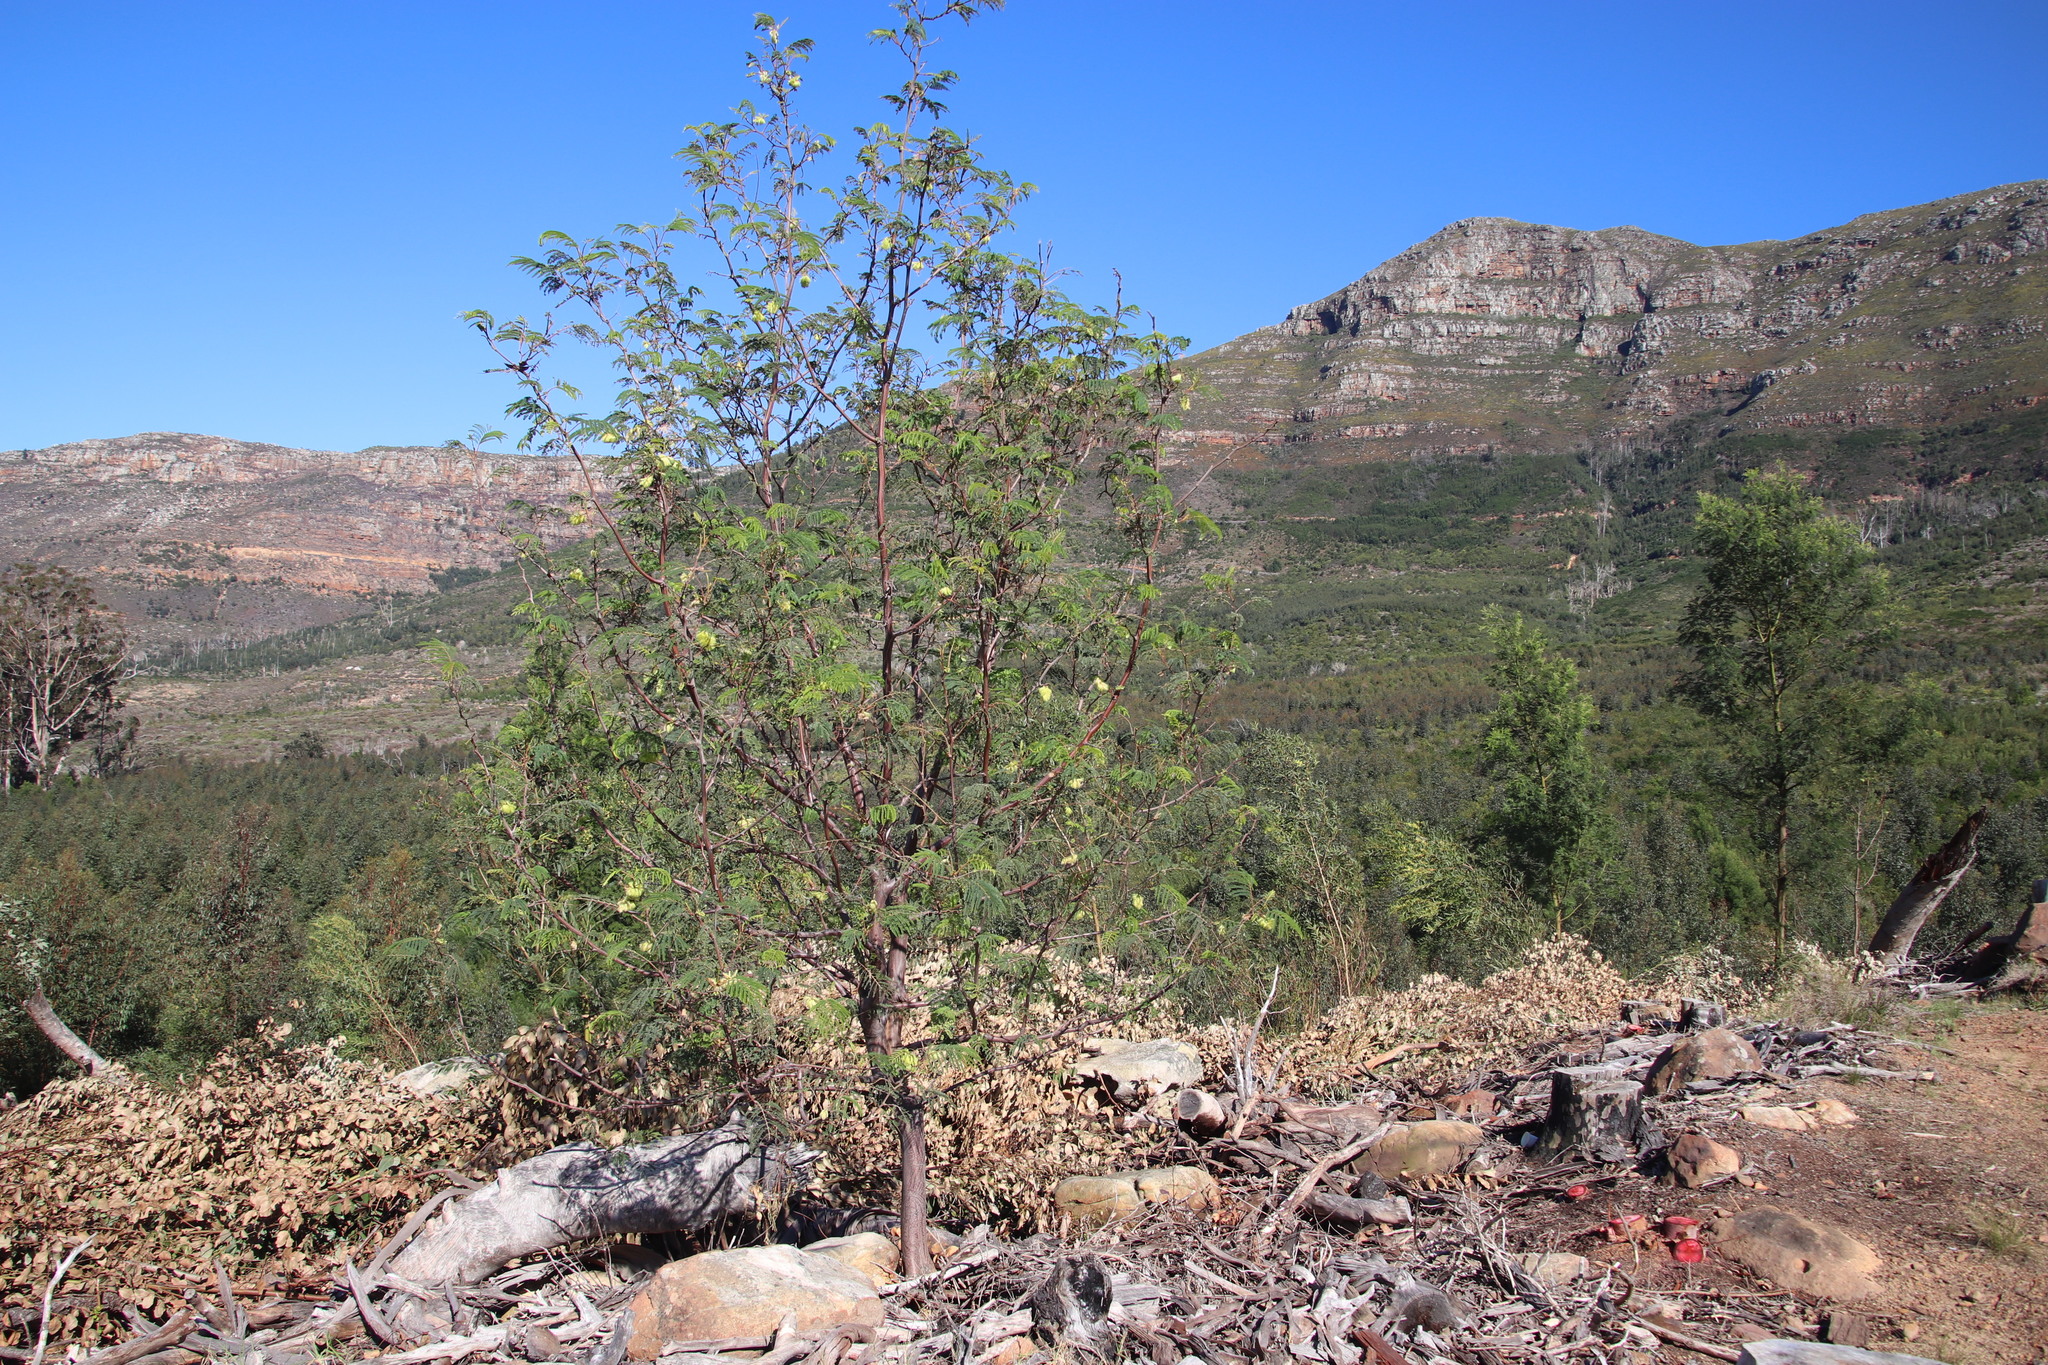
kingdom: Plantae
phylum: Tracheophyta
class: Magnoliopsida
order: Fabales
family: Fabaceae
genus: Paraserianthes
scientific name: Paraserianthes lophantha
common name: Plume albizia
